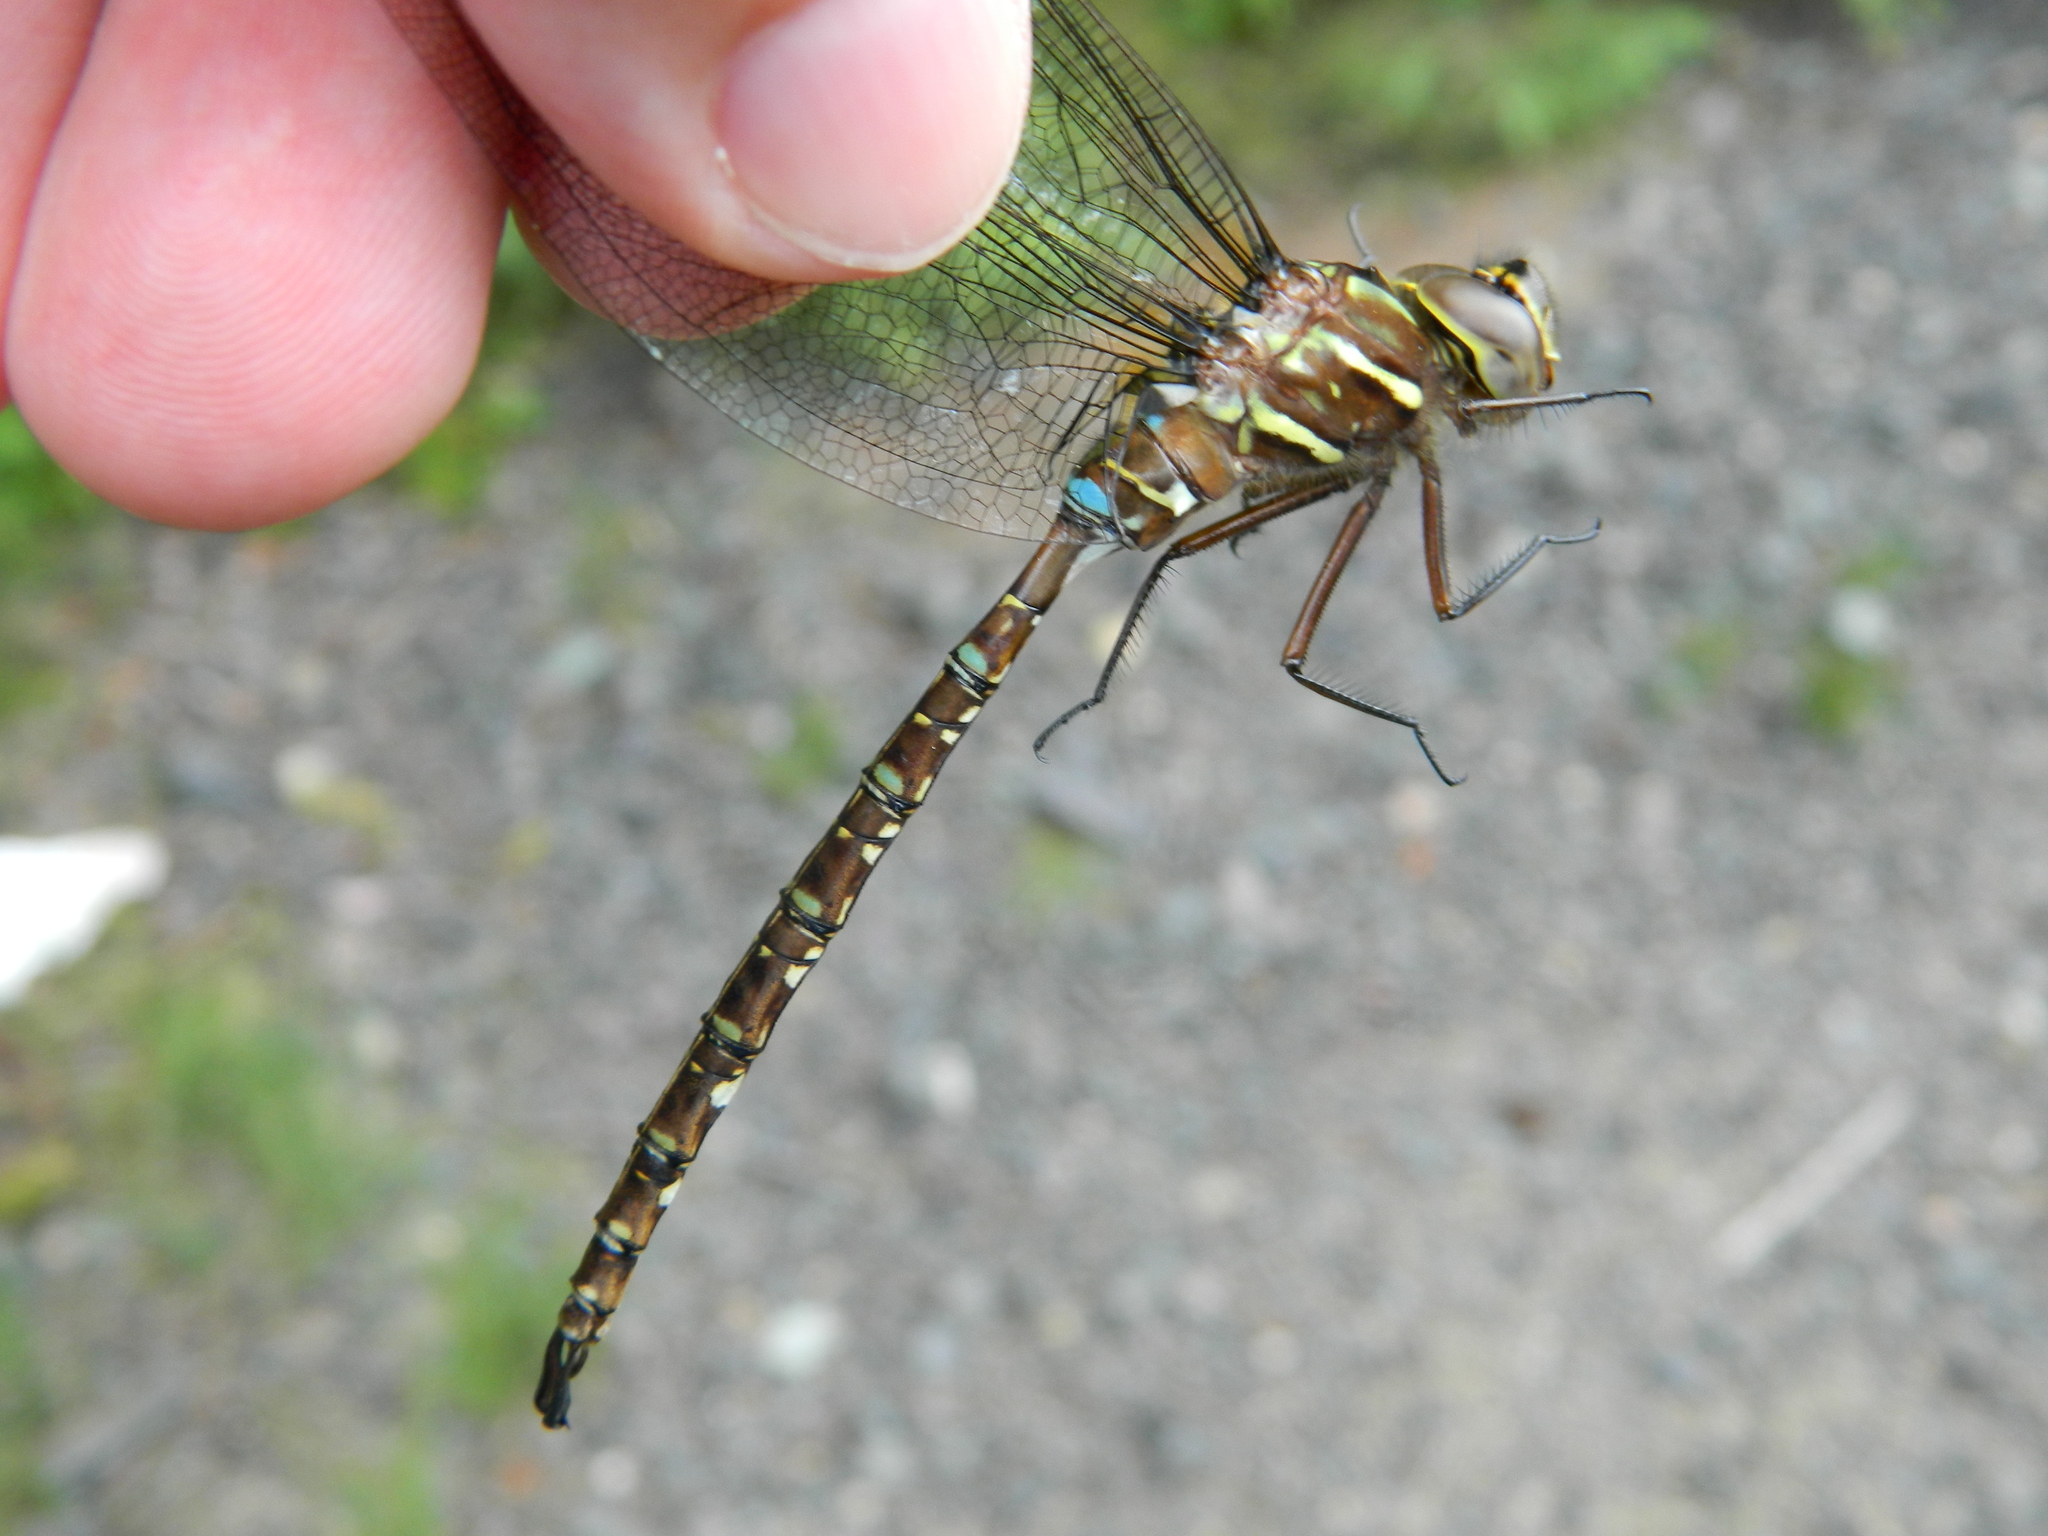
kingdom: Animalia
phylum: Arthropoda
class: Insecta
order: Odonata
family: Aeshnidae
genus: Aeshna
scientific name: Aeshna umbrosa
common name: Shadow darner
